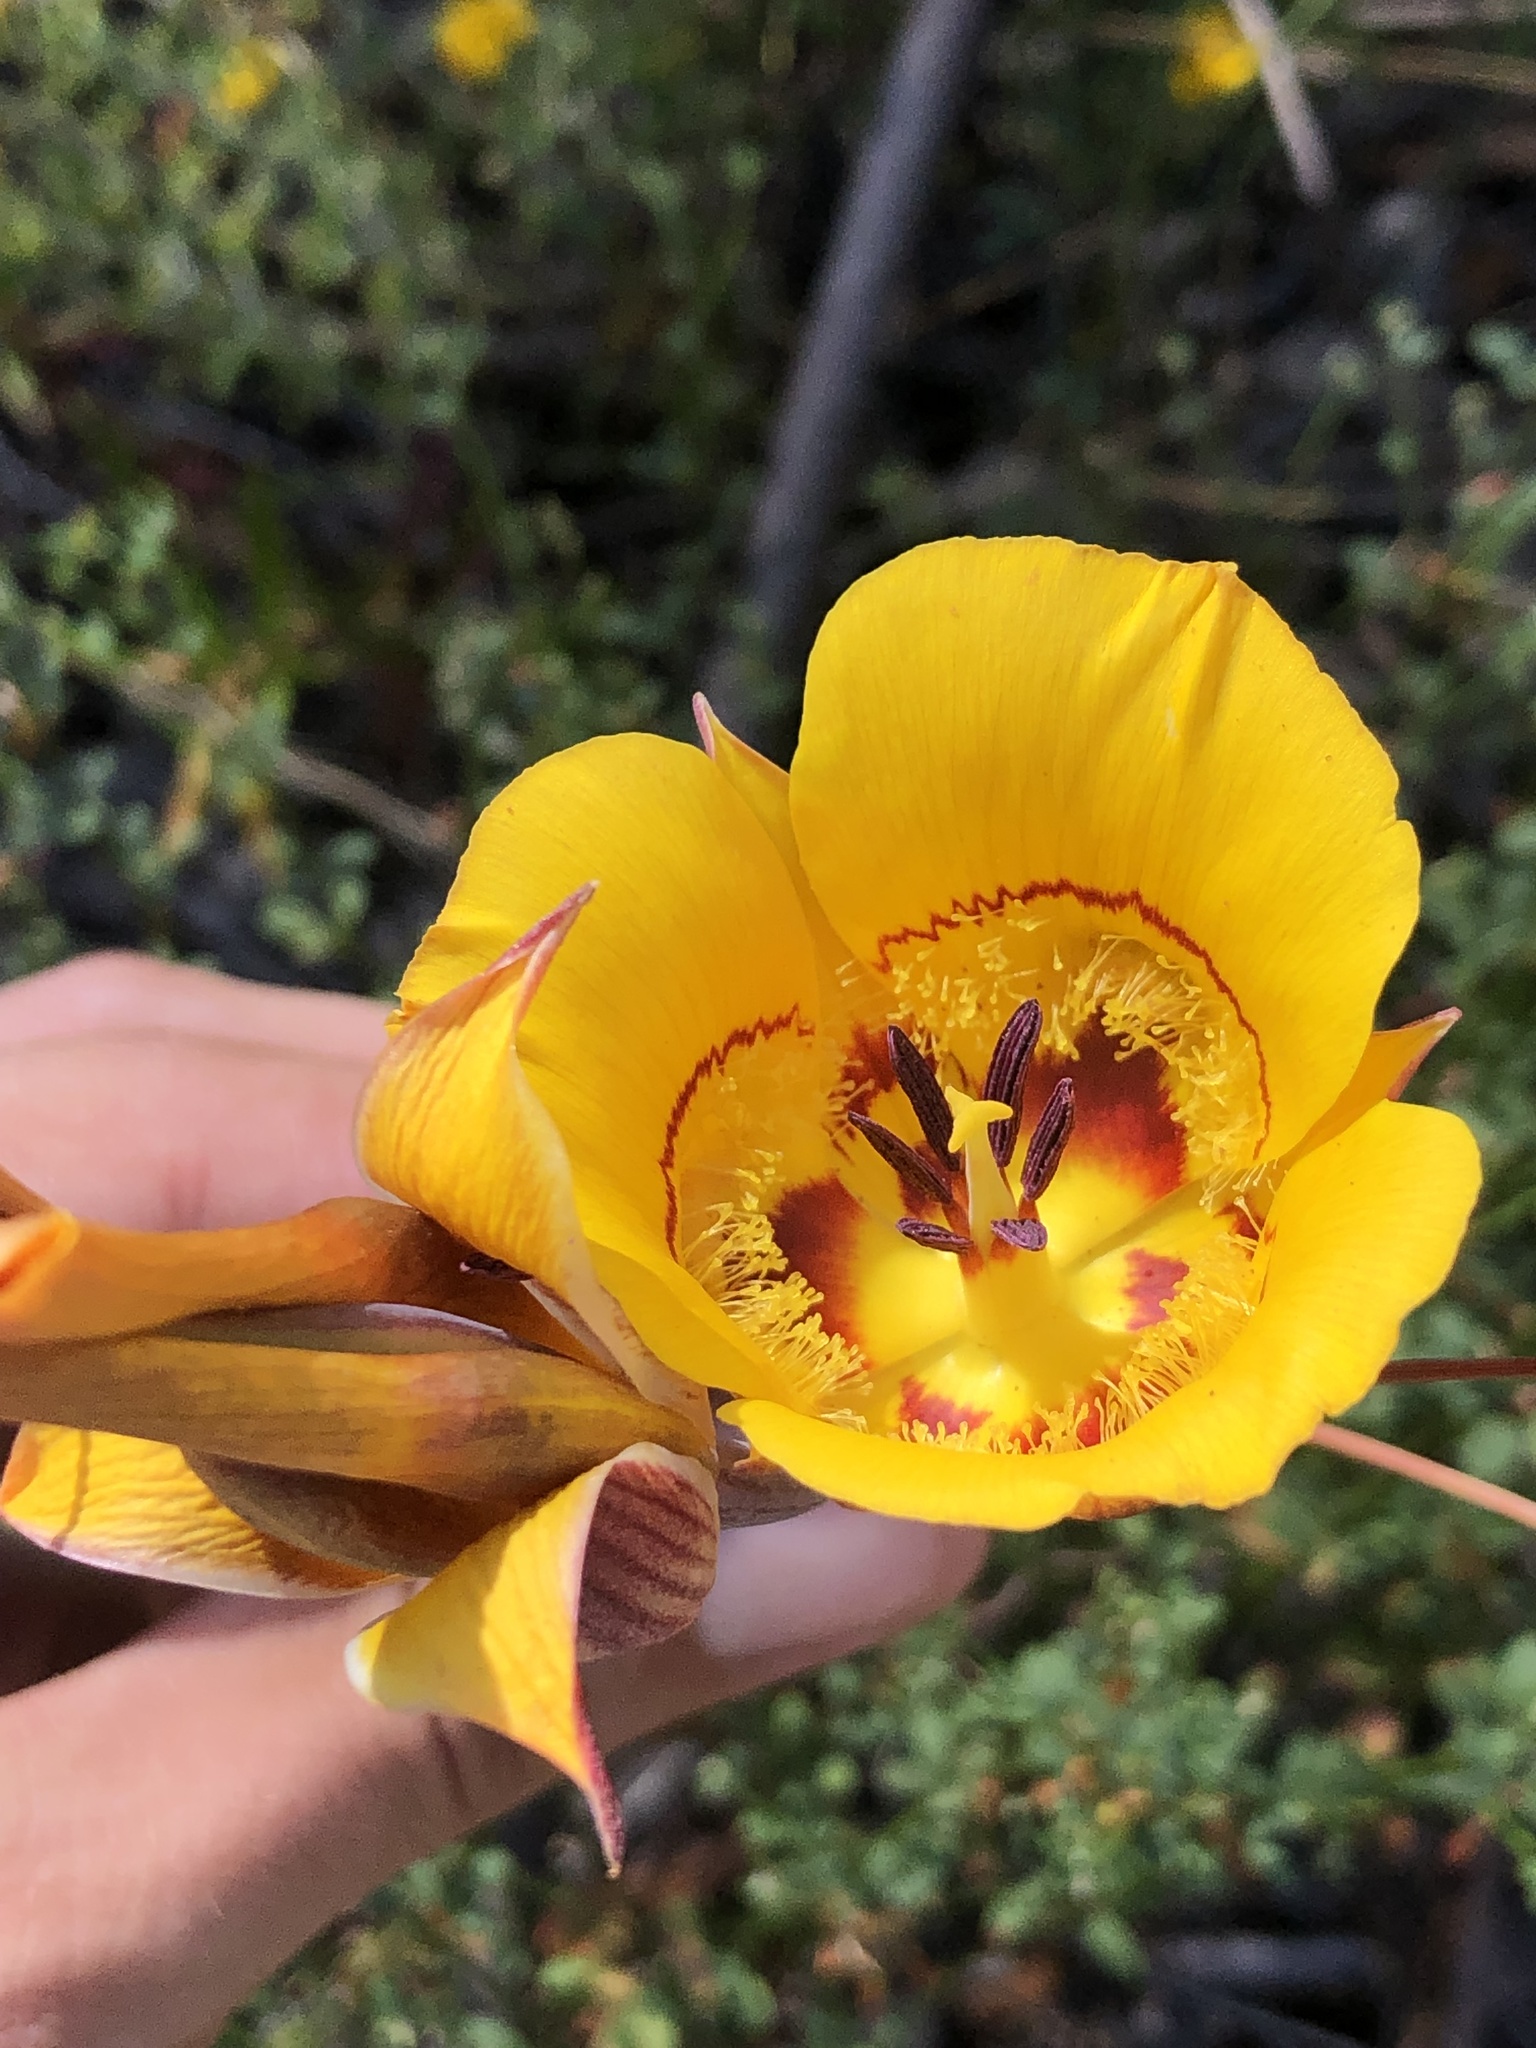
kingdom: Plantae
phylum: Tracheophyta
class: Liliopsida
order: Liliales
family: Liliaceae
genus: Calochortus
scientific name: Calochortus clavatus
